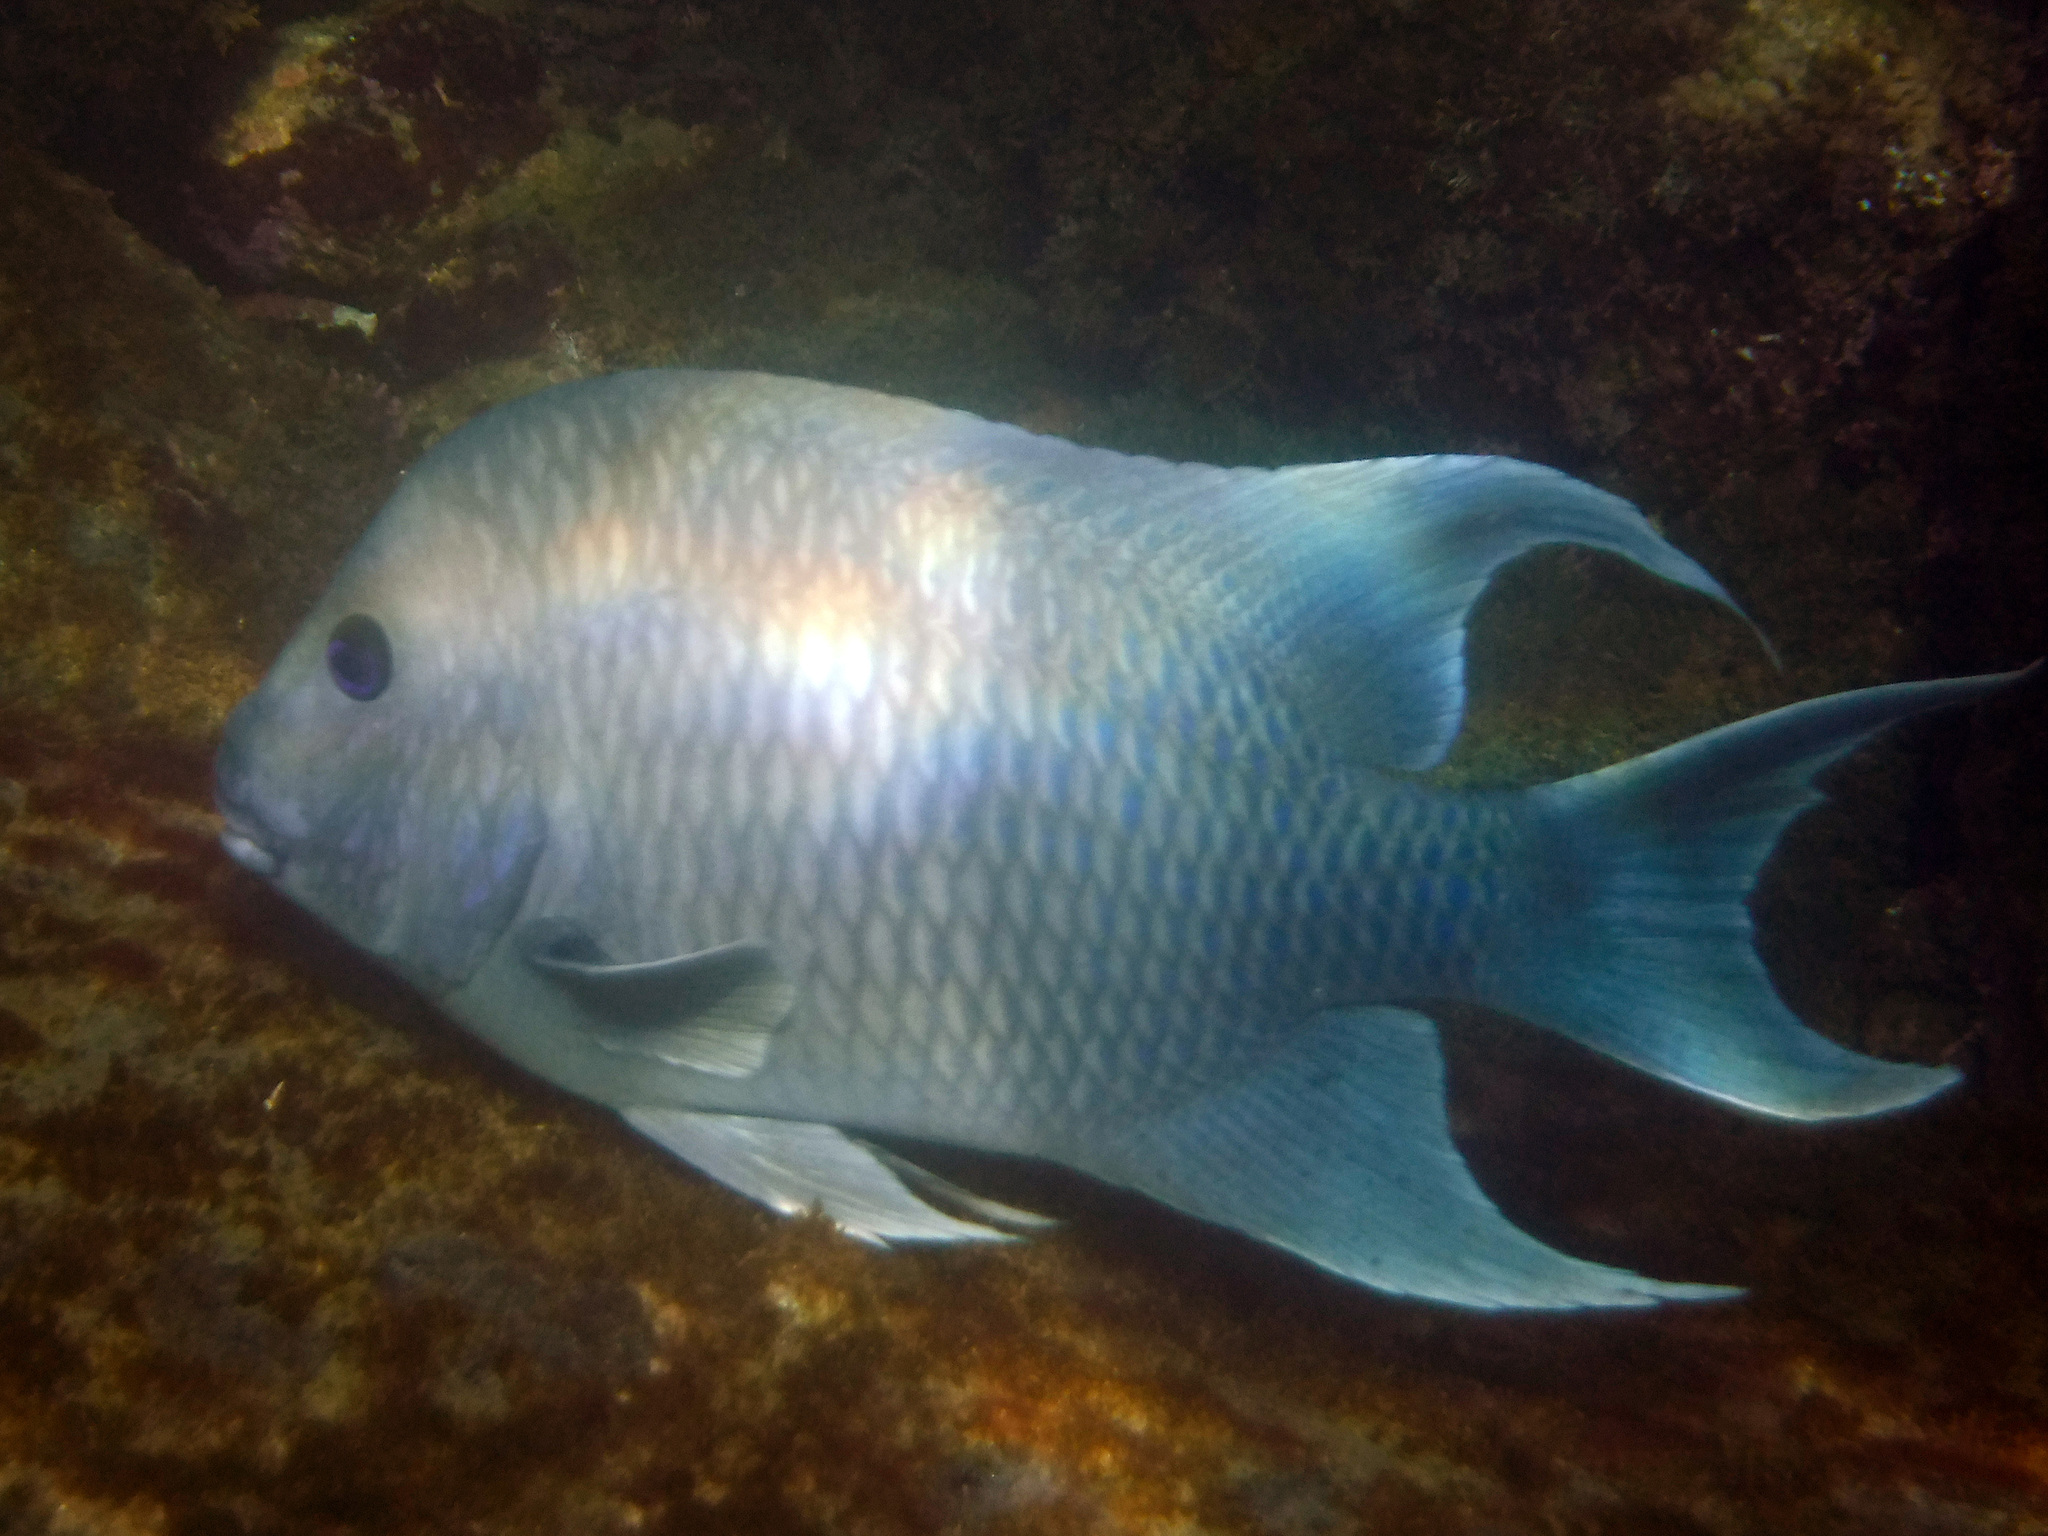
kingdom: Animalia
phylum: Chordata
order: Perciformes
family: Pomacentridae
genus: Microspathodon
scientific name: Microspathodon dorsalis
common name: Giant damselfish
